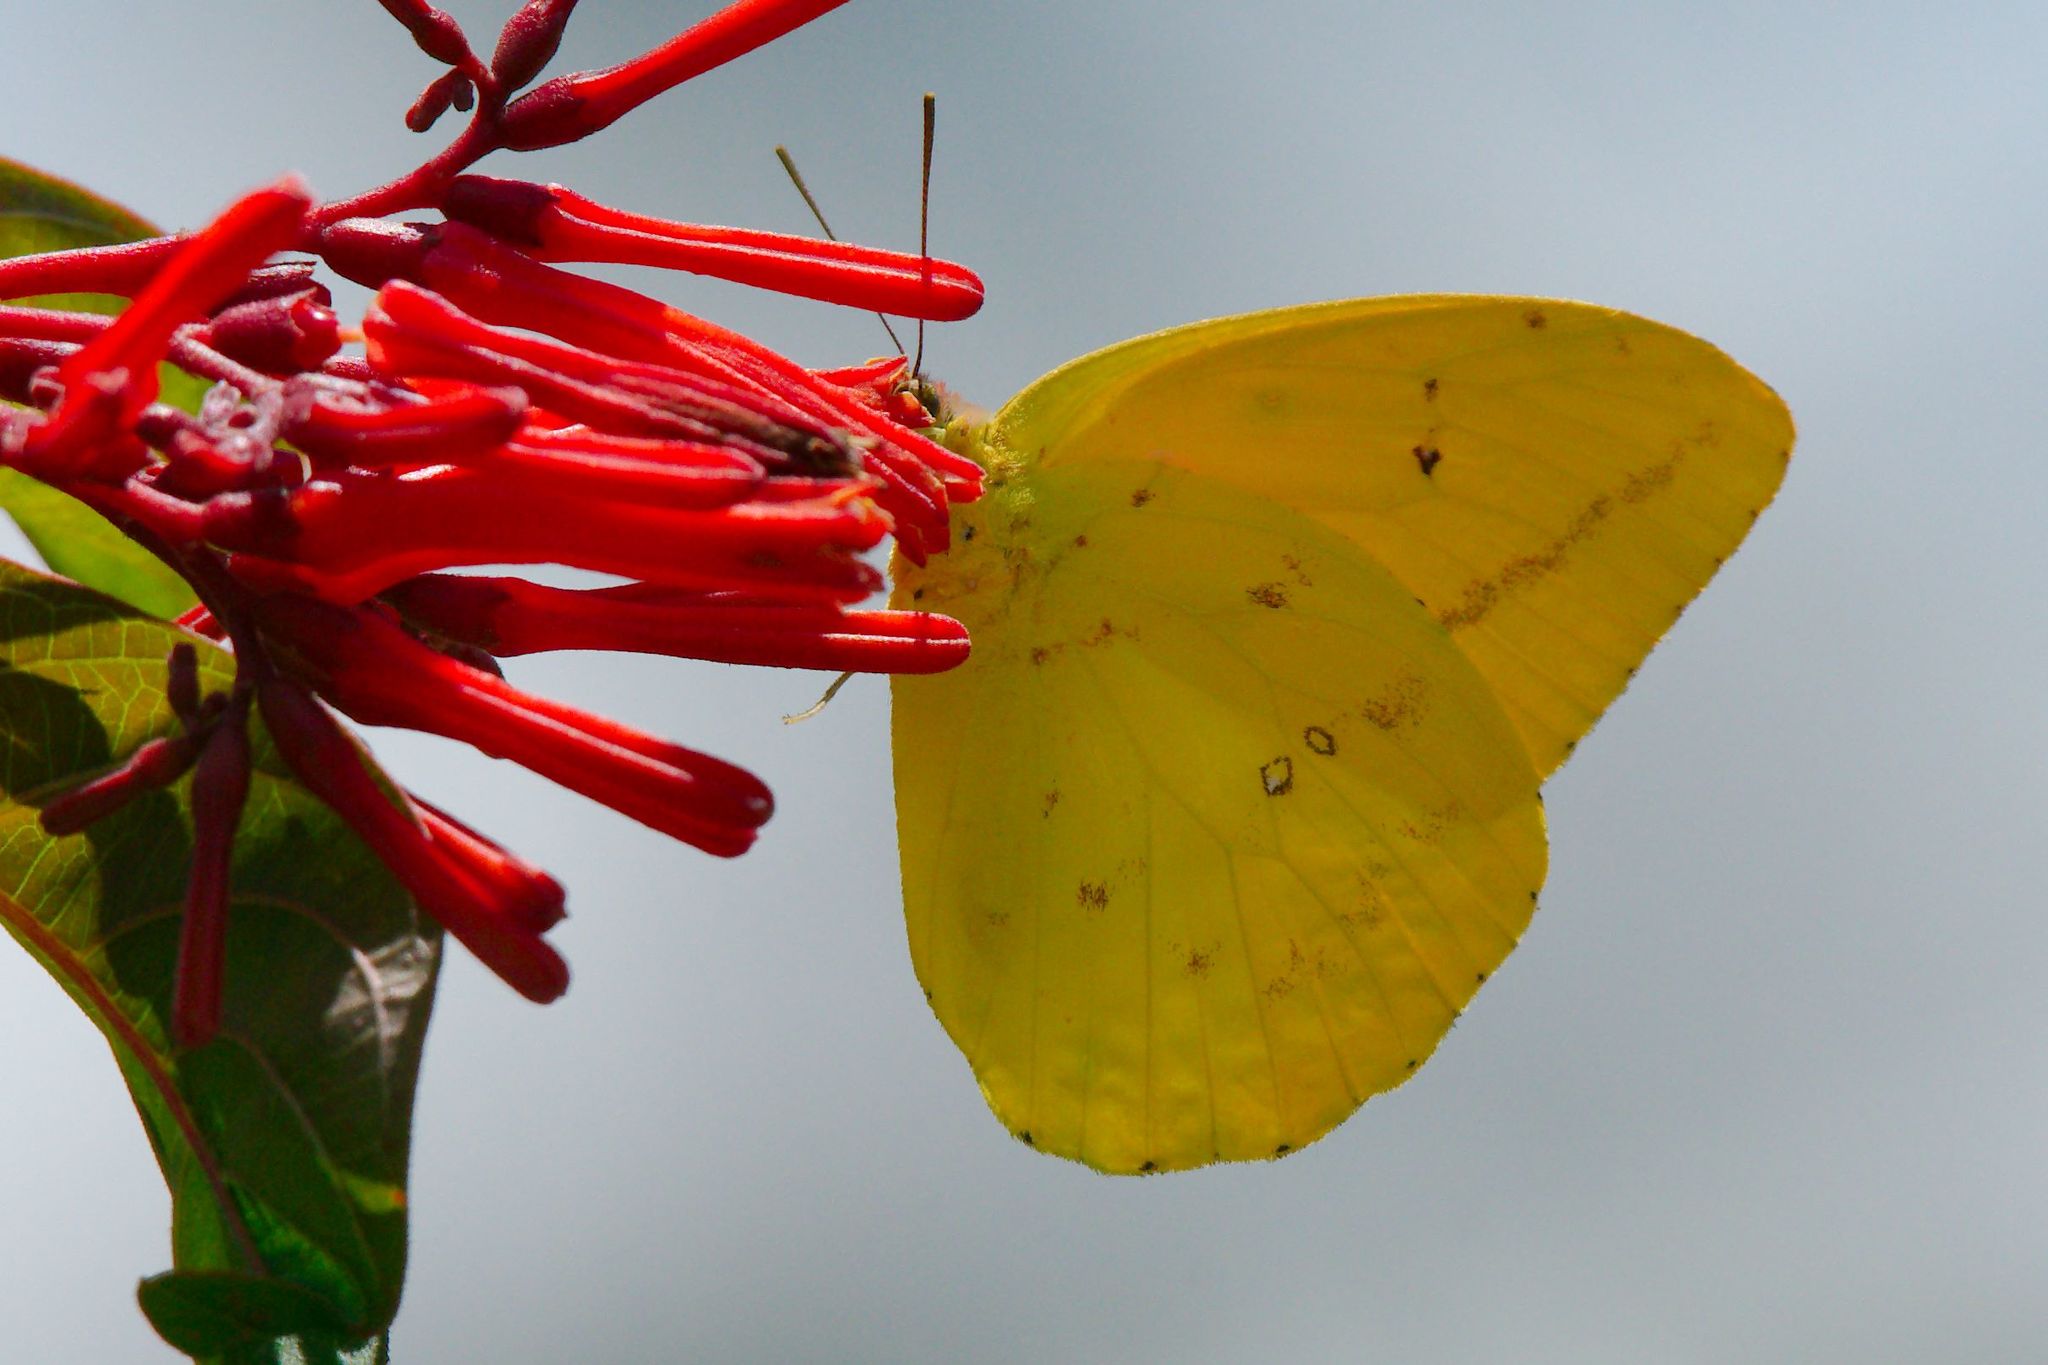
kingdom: Animalia
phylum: Arthropoda
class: Insecta
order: Lepidoptera
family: Pieridae
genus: Phoebis
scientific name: Phoebis agarithe
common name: Large orange sulphur
